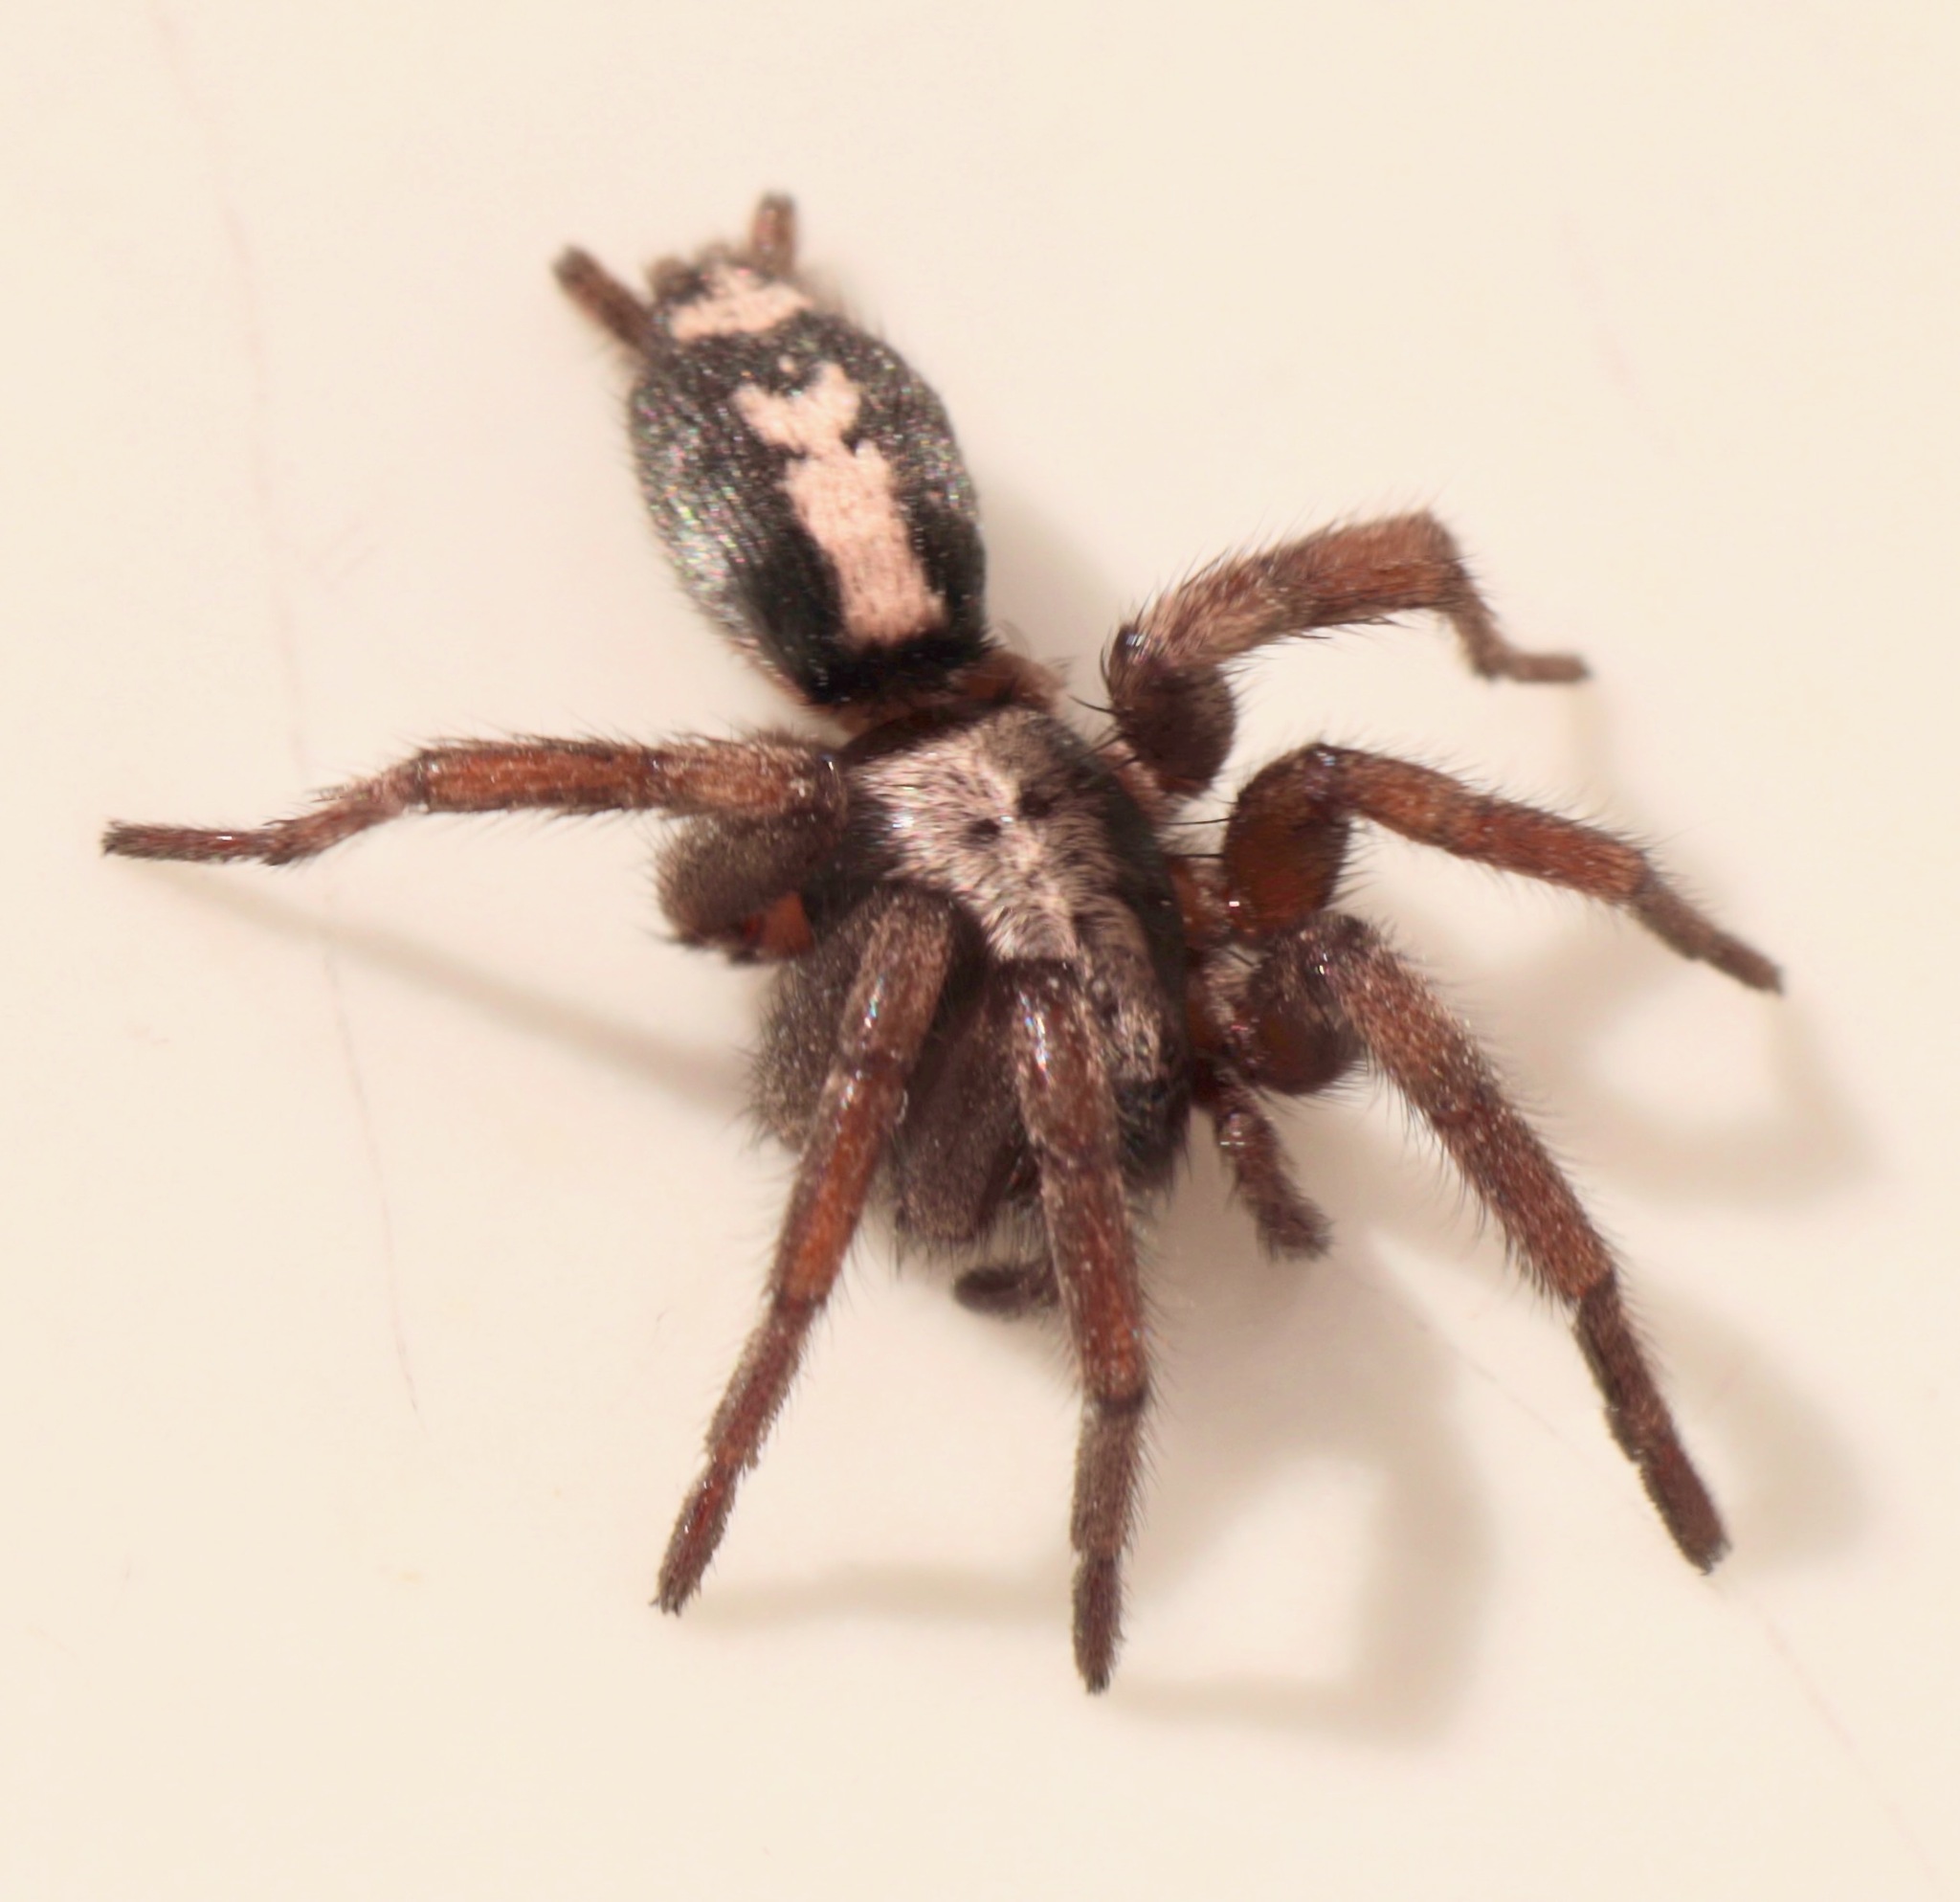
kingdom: Animalia
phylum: Arthropoda
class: Arachnida
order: Araneae
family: Gnaphosidae
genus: Herpyllus
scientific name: Herpyllus ecclesiasticus
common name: Eastern parson spider
